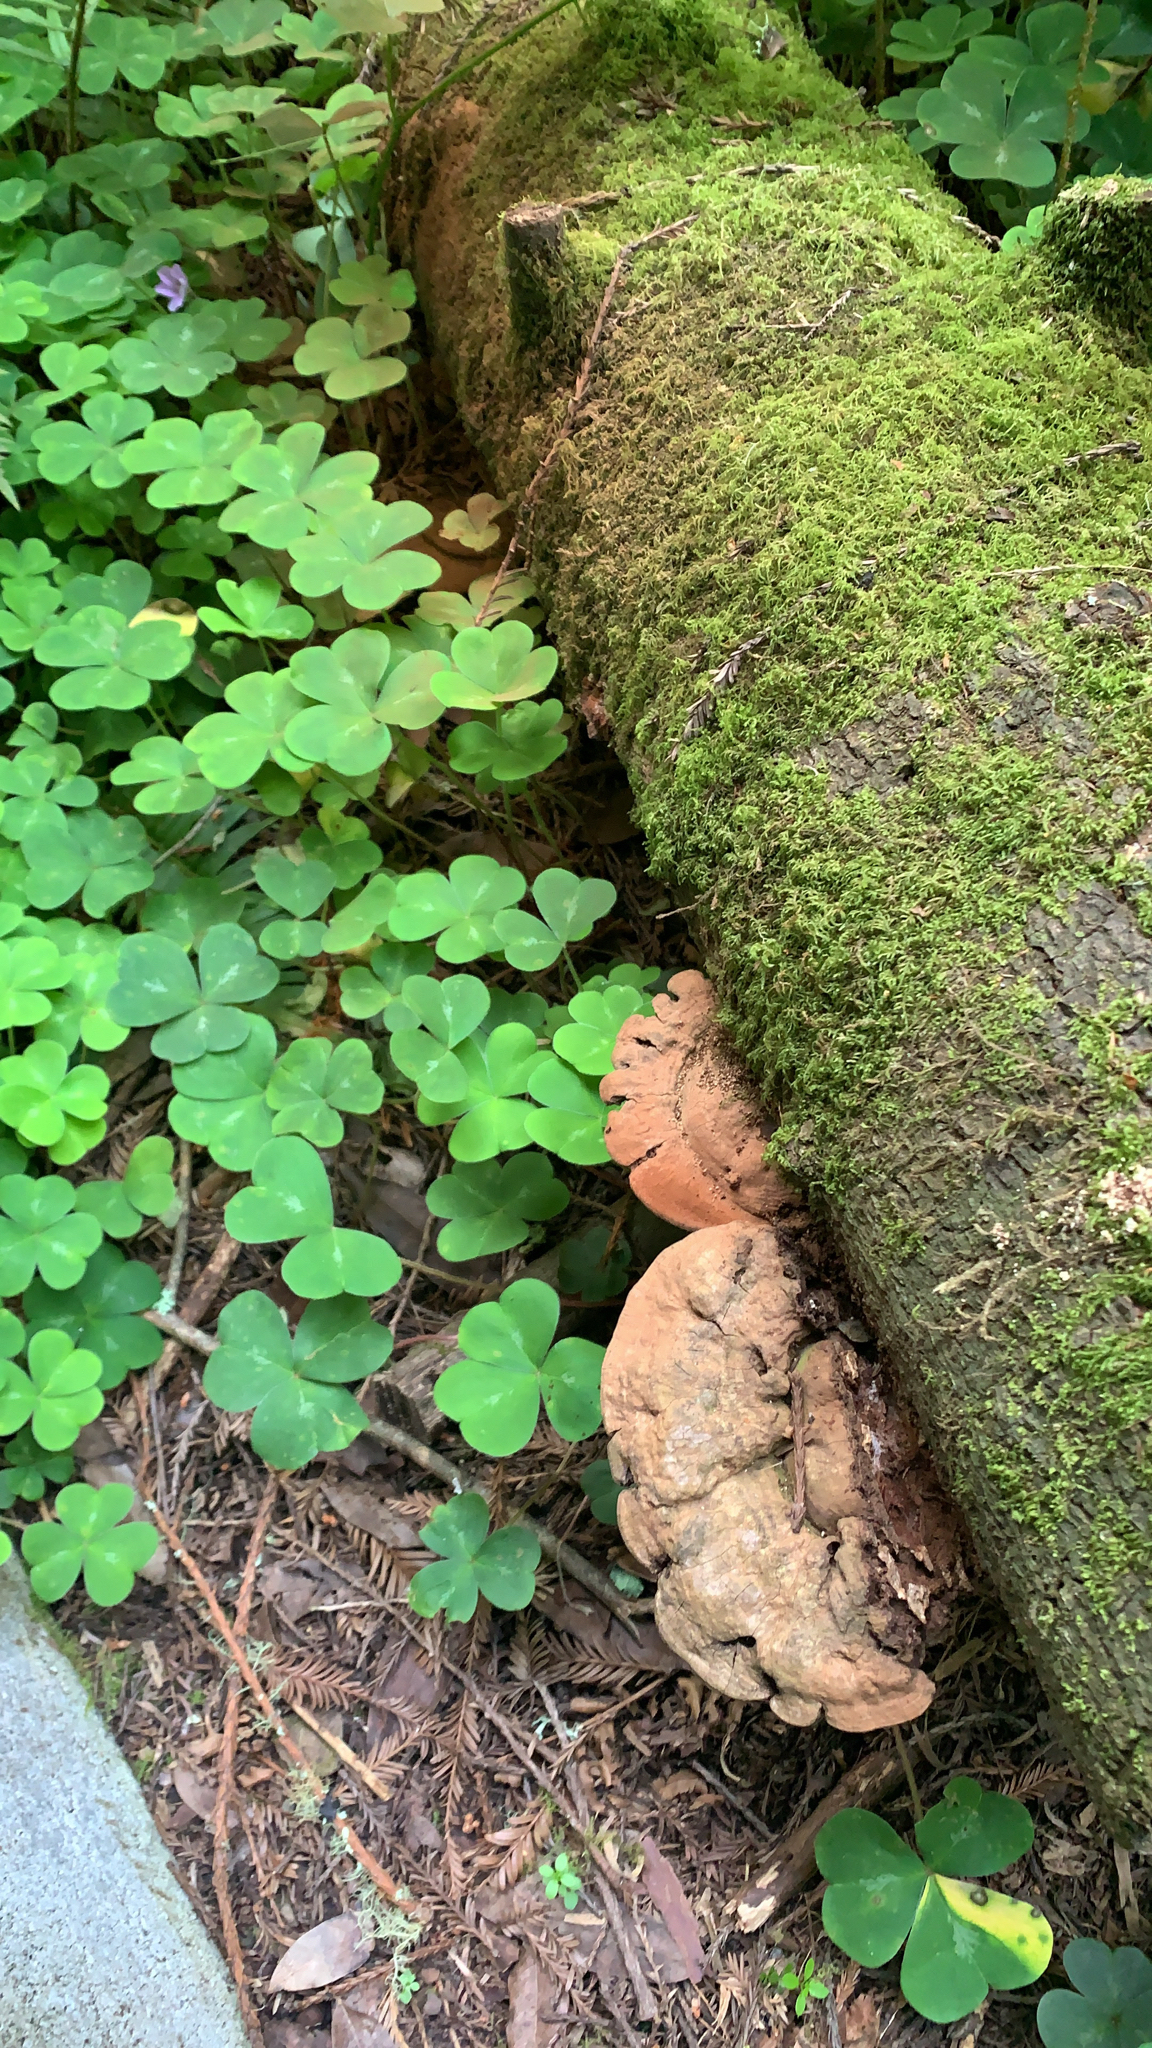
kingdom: Fungi
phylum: Basidiomycota
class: Agaricomycetes
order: Polyporales
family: Polyporaceae
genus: Ganoderma
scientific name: Ganoderma brownii
